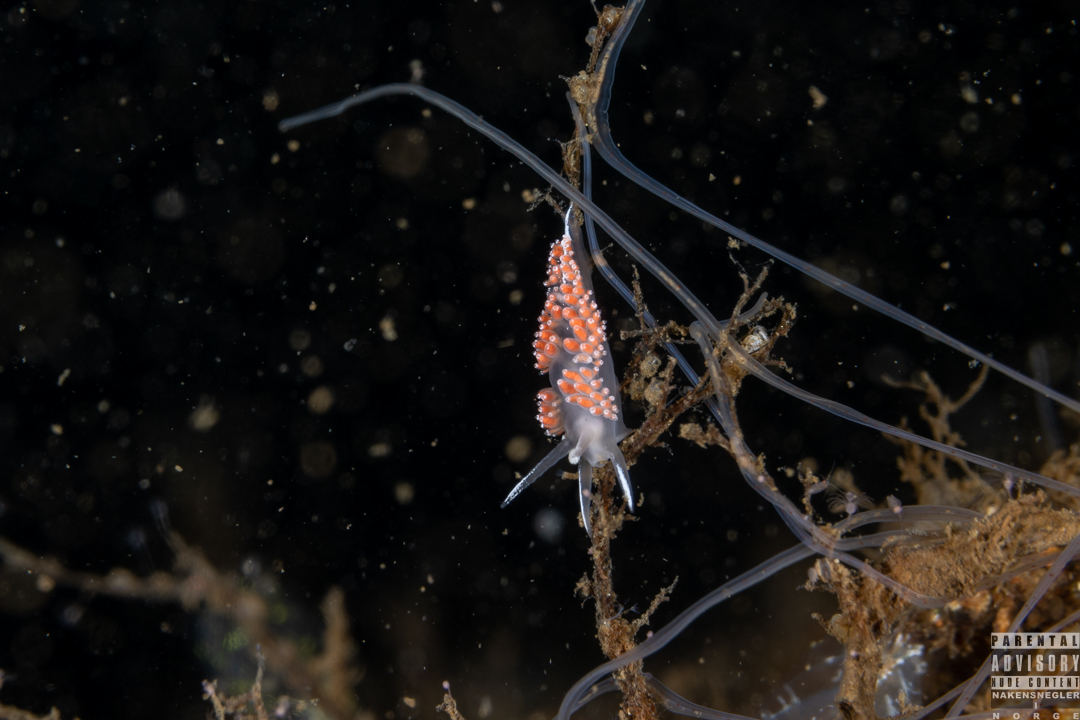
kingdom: Animalia
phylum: Mollusca
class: Gastropoda
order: Nudibranchia
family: Coryphellidae
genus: Coryphella
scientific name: Coryphella verrucosa
